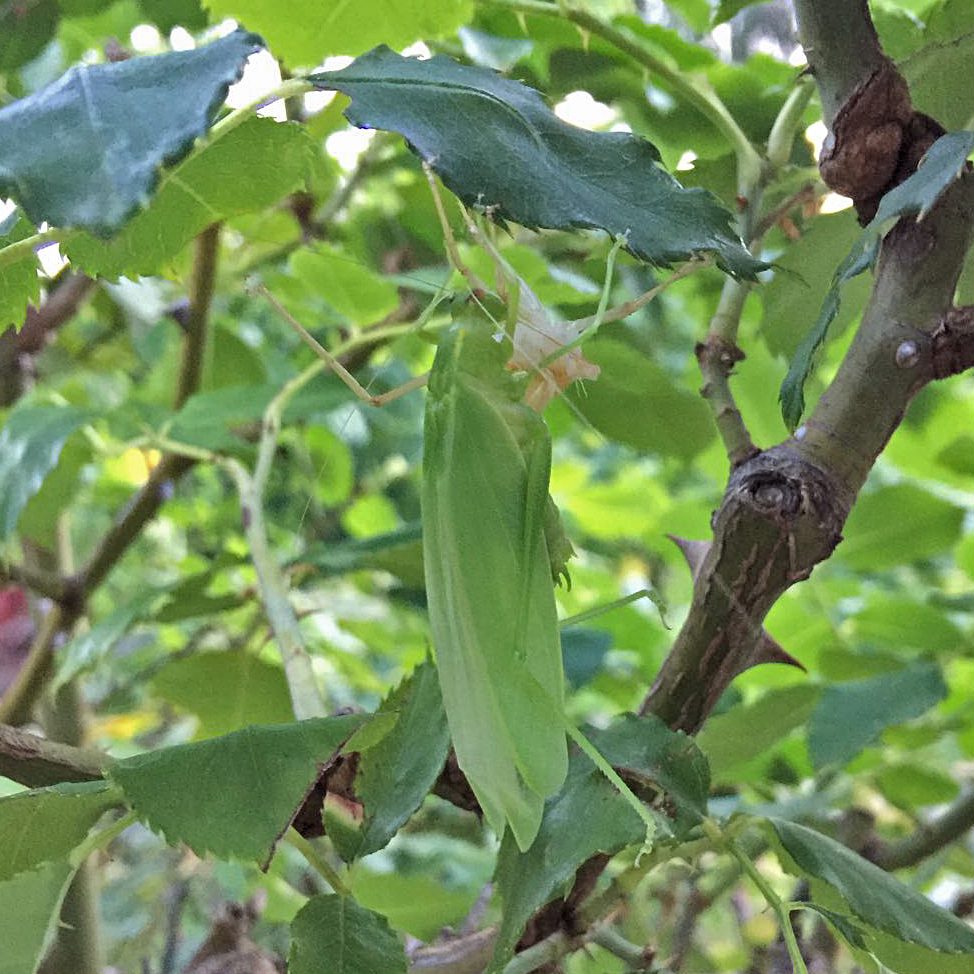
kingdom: Animalia
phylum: Arthropoda
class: Insecta
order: Orthoptera
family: Tettigoniidae
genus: Caedicia
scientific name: Caedicia simplex
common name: Common garden katydid
